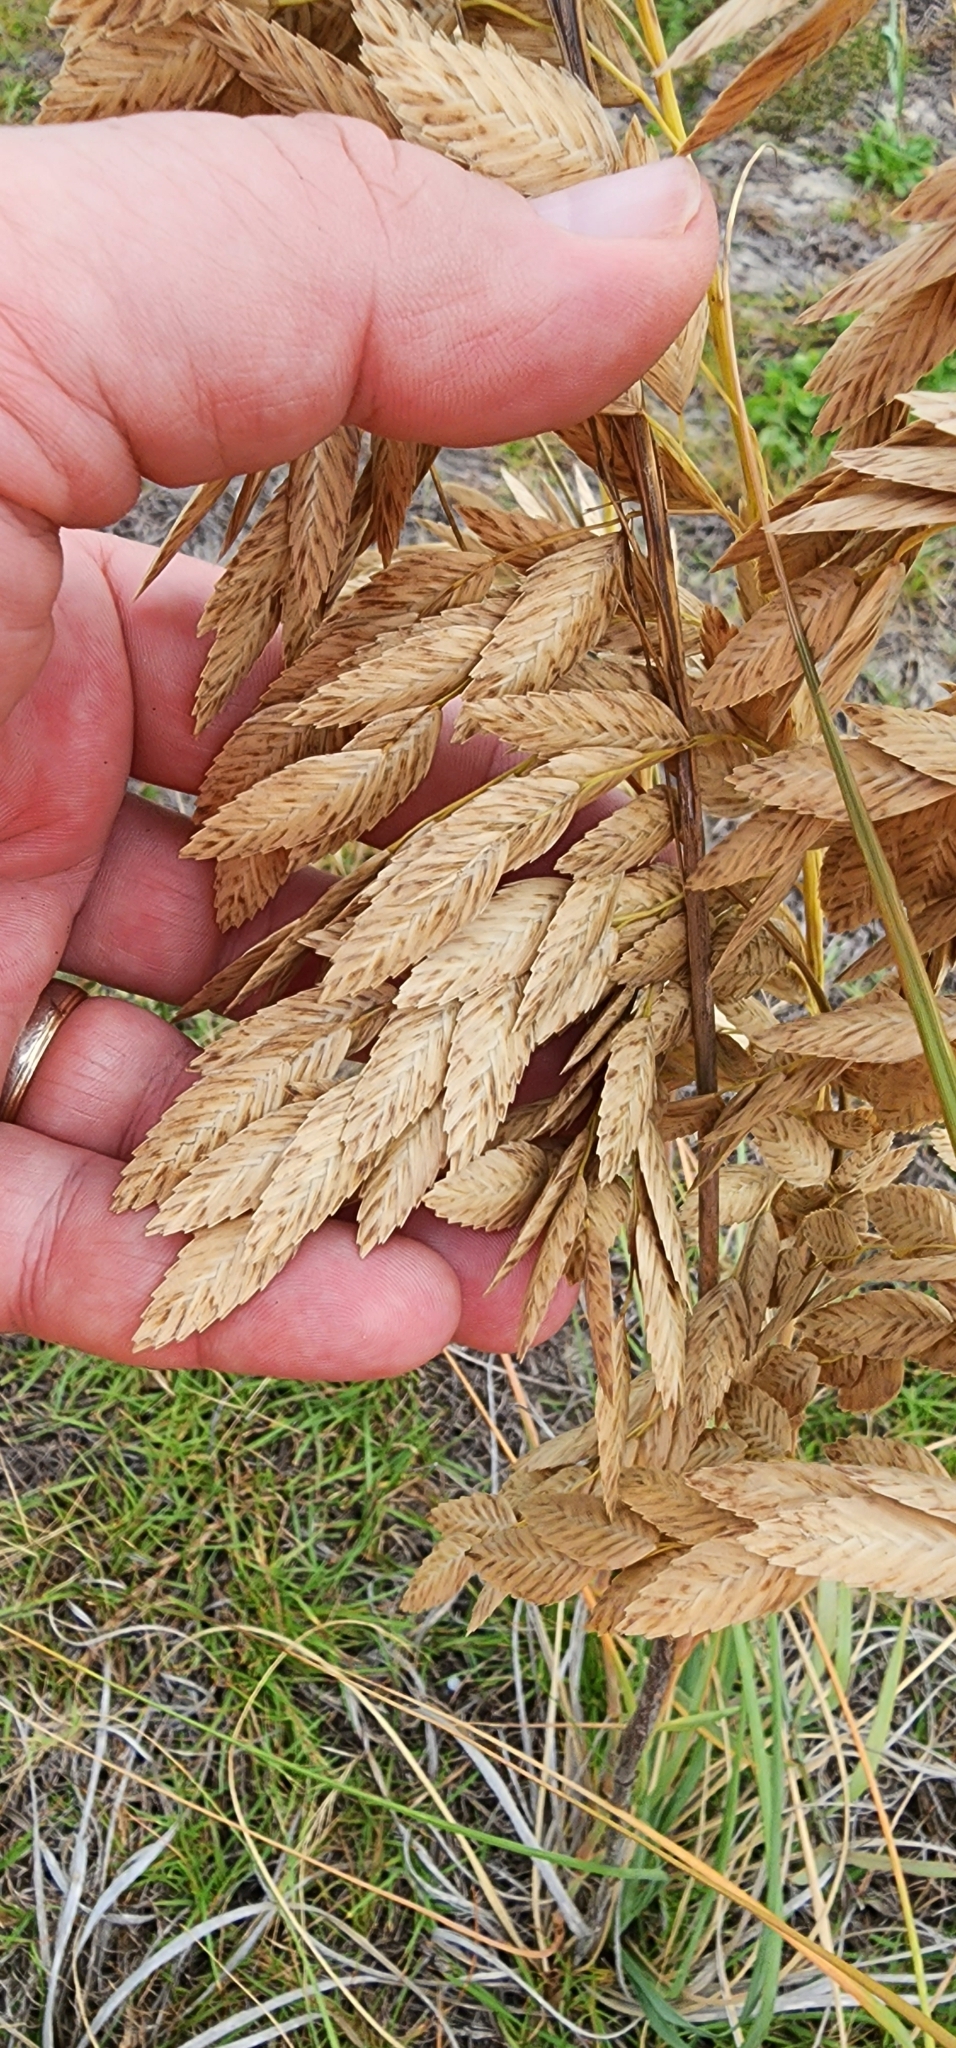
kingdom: Plantae
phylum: Tracheophyta
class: Liliopsida
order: Poales
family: Poaceae
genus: Uniola
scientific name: Uniola paniculata
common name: Seaside-oats
